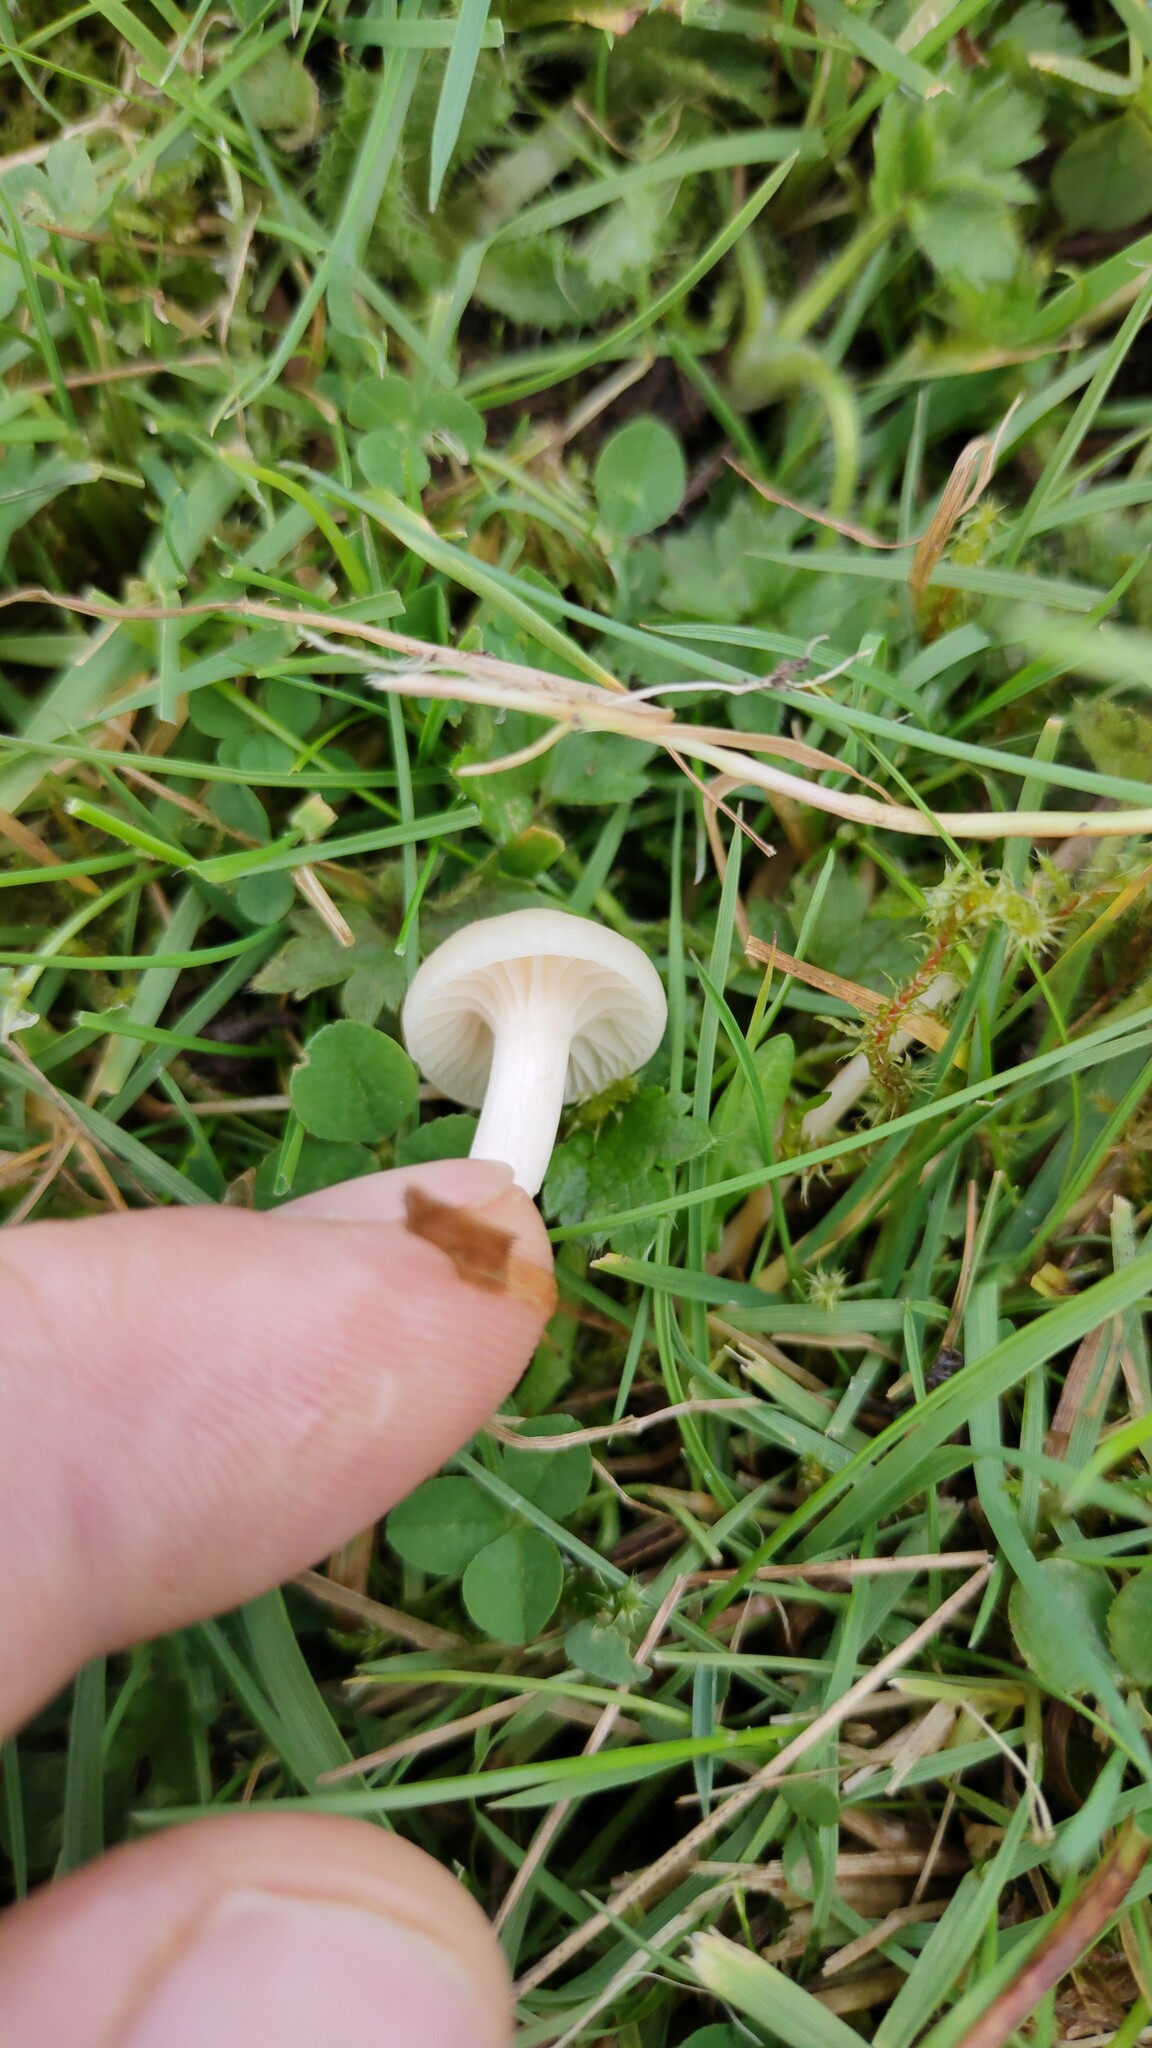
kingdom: Fungi
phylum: Basidiomycota
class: Agaricomycetes
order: Agaricales
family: Hygrophoraceae
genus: Cuphophyllus
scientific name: Cuphophyllus virgineus
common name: Snowy waxcap
